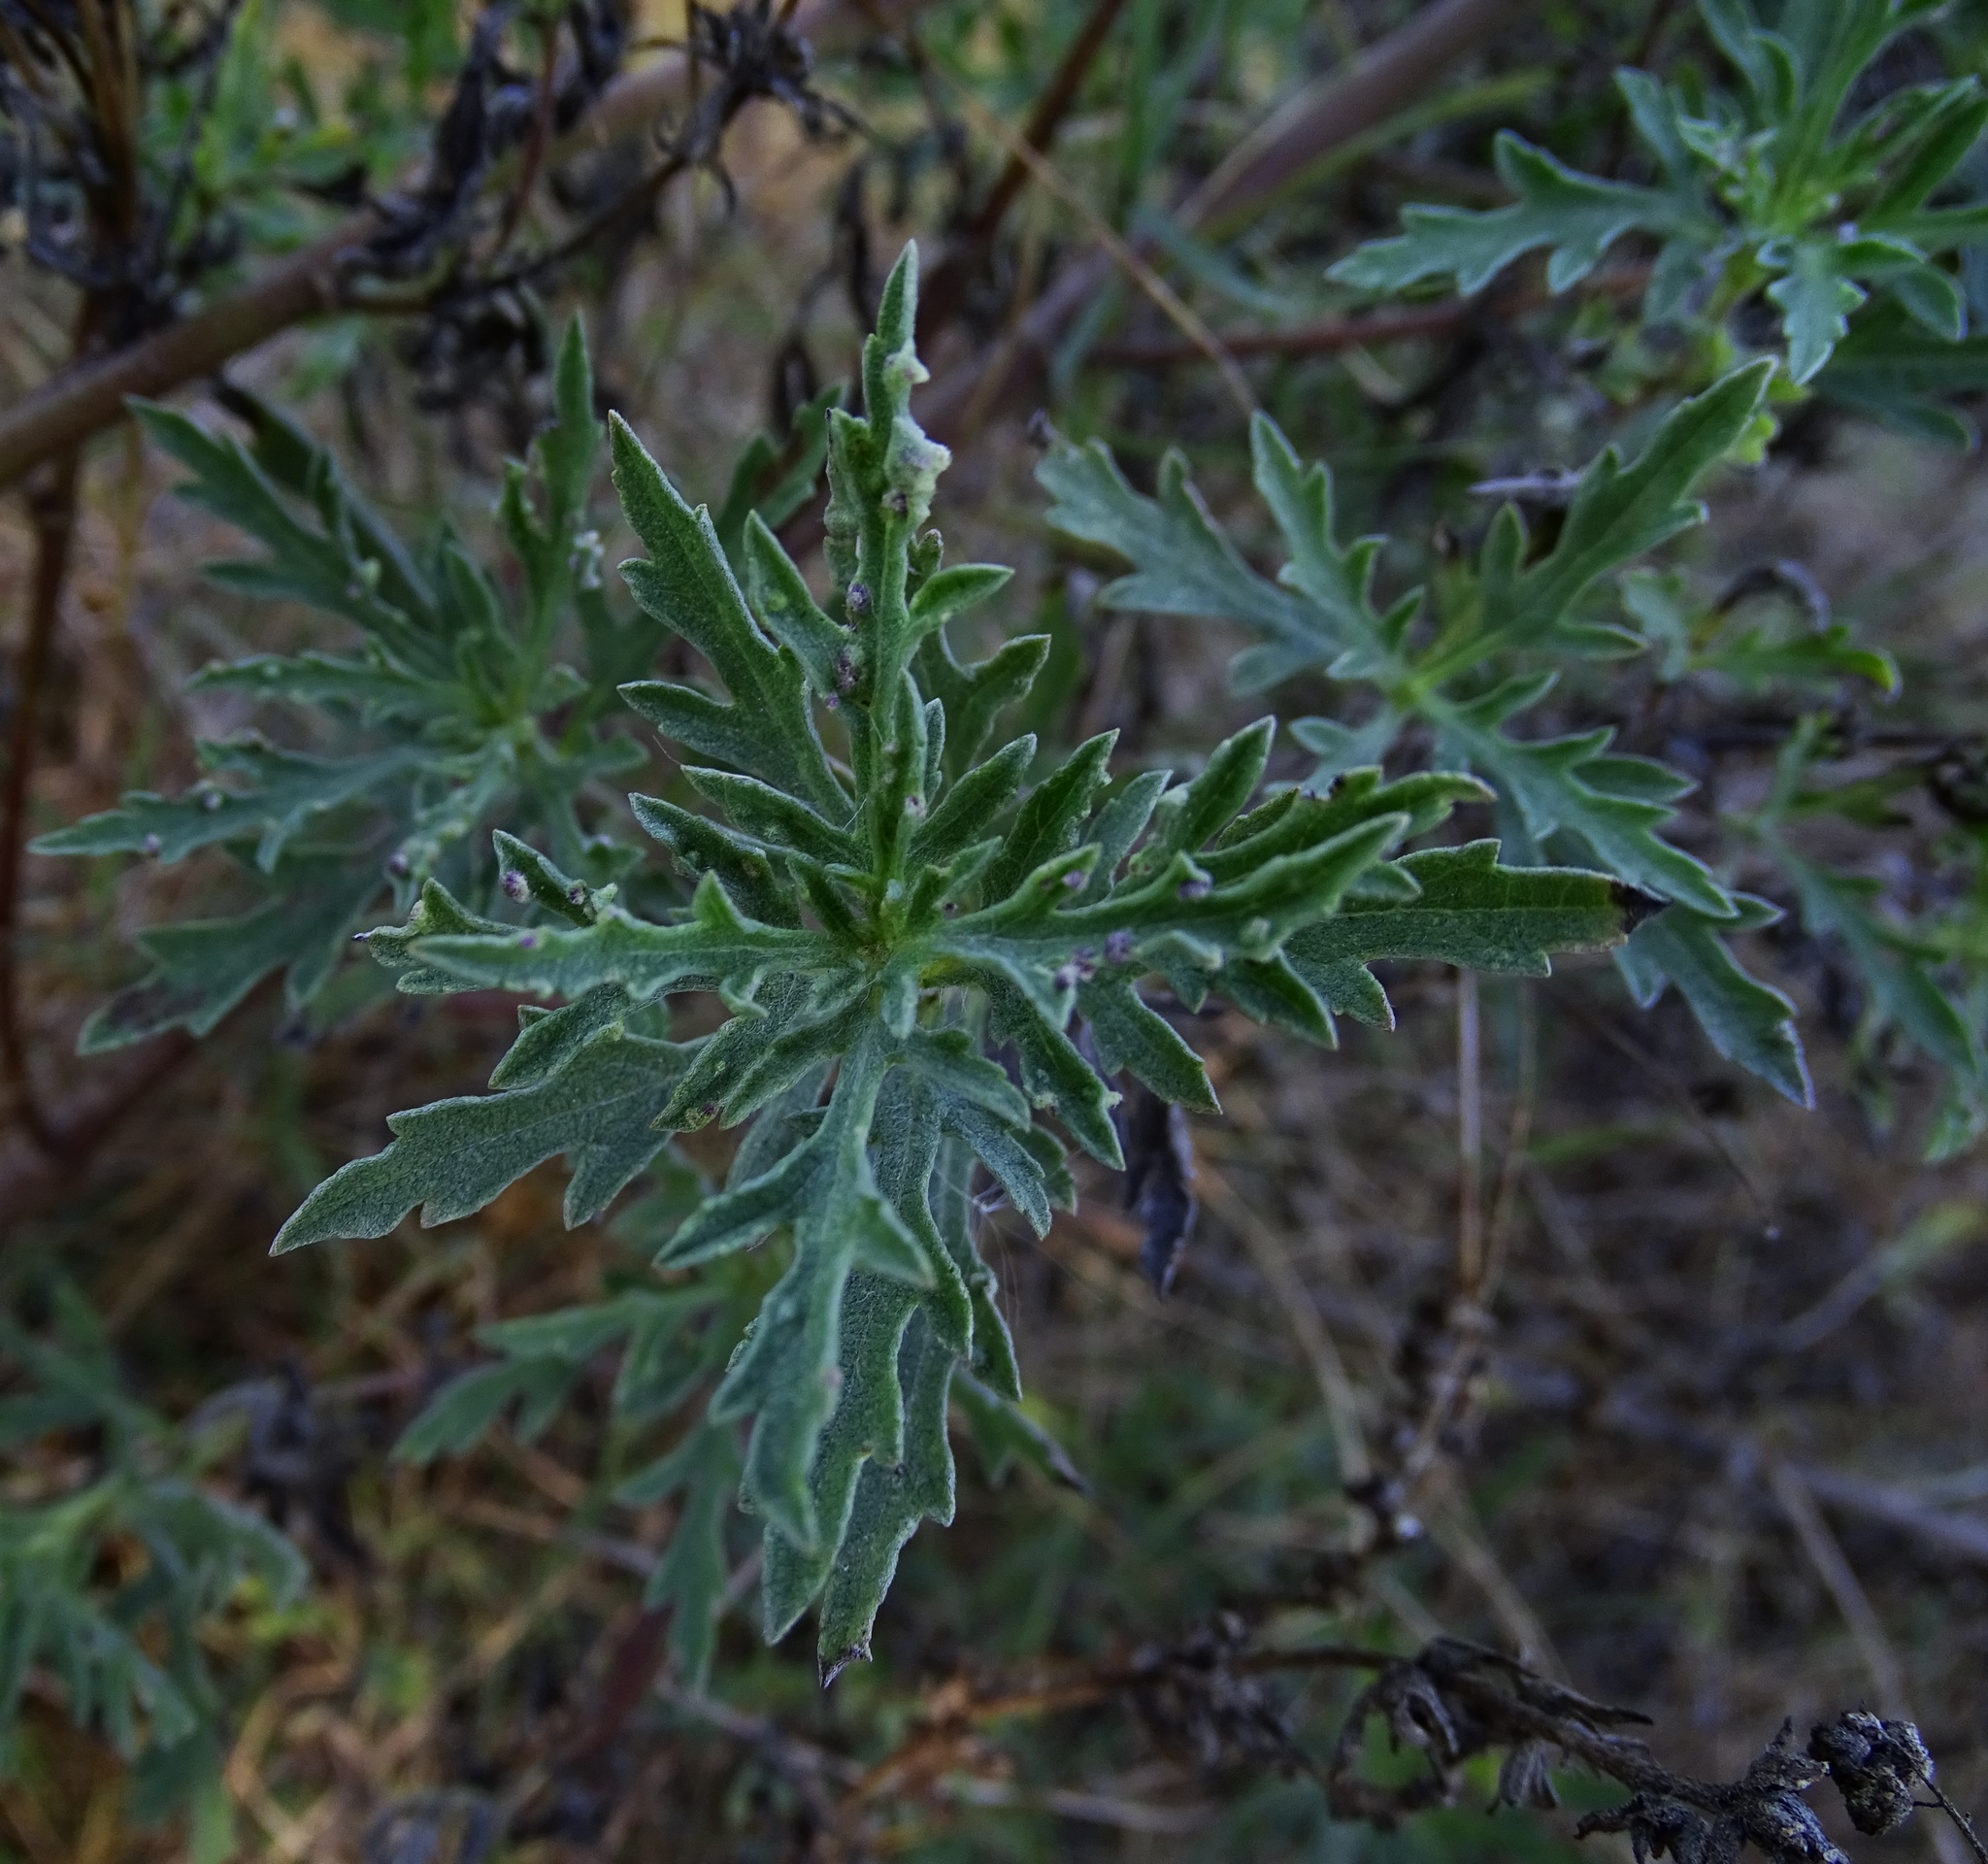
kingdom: Plantae
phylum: Tracheophyta
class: Magnoliopsida
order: Asterales
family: Asteraceae
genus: Ambrosia
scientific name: Ambrosia psilostachya
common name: Perennial ragweed
